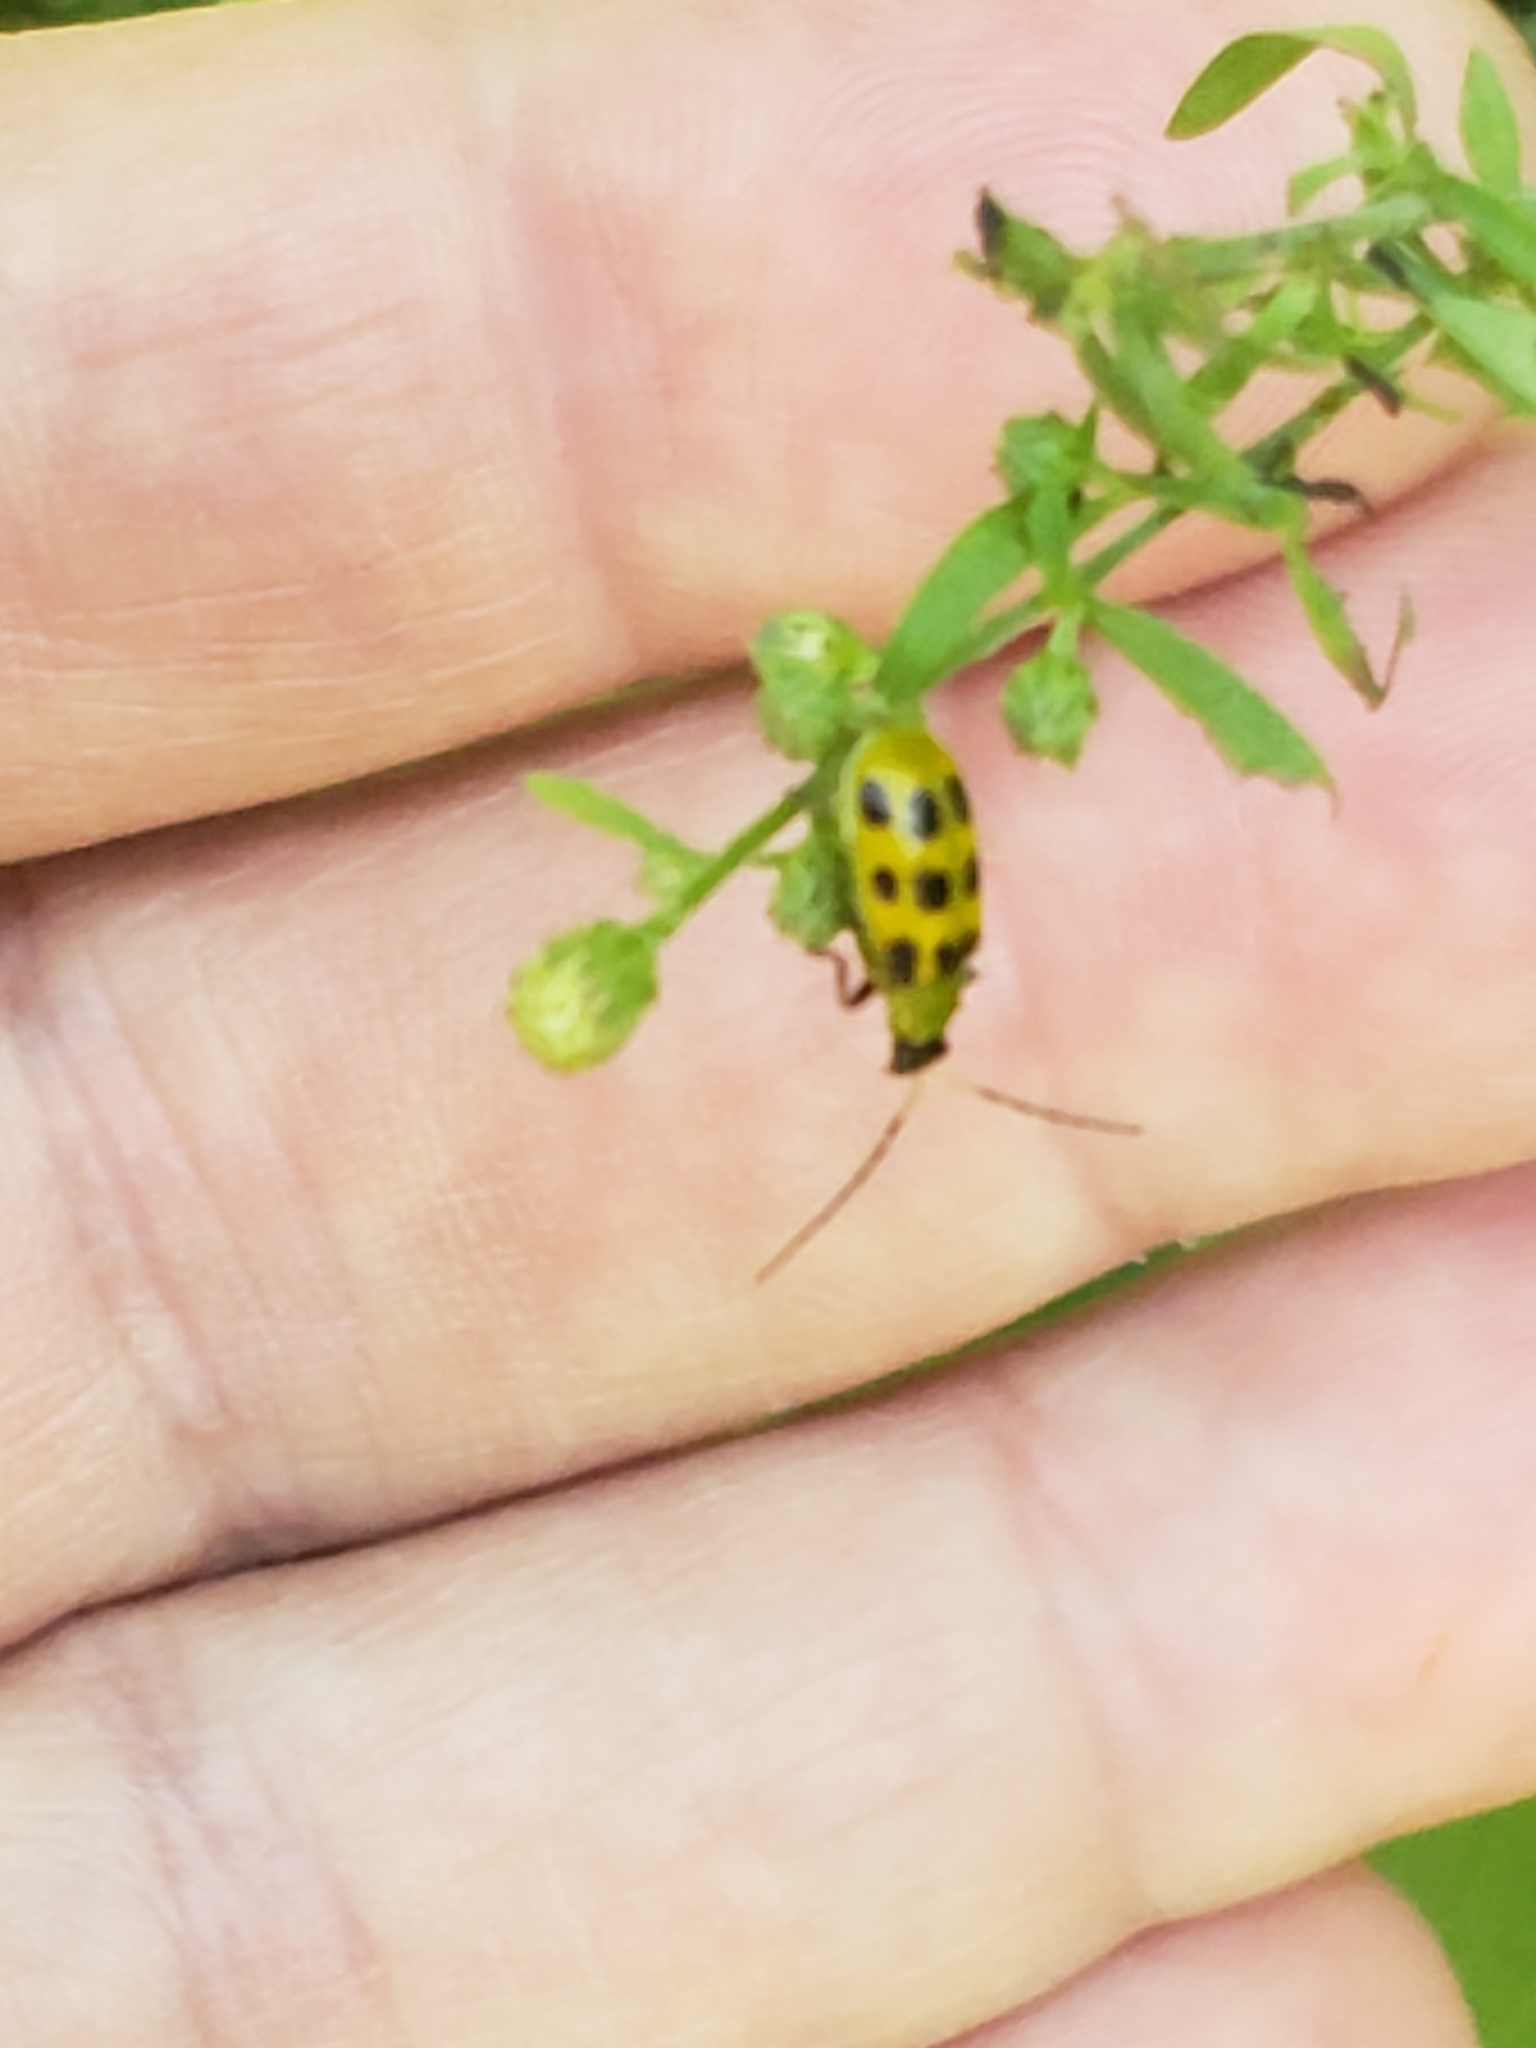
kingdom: Animalia
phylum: Arthropoda
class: Insecta
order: Coleoptera
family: Chrysomelidae
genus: Diabrotica
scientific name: Diabrotica undecimpunctata
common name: Spotted cucumber beetle
